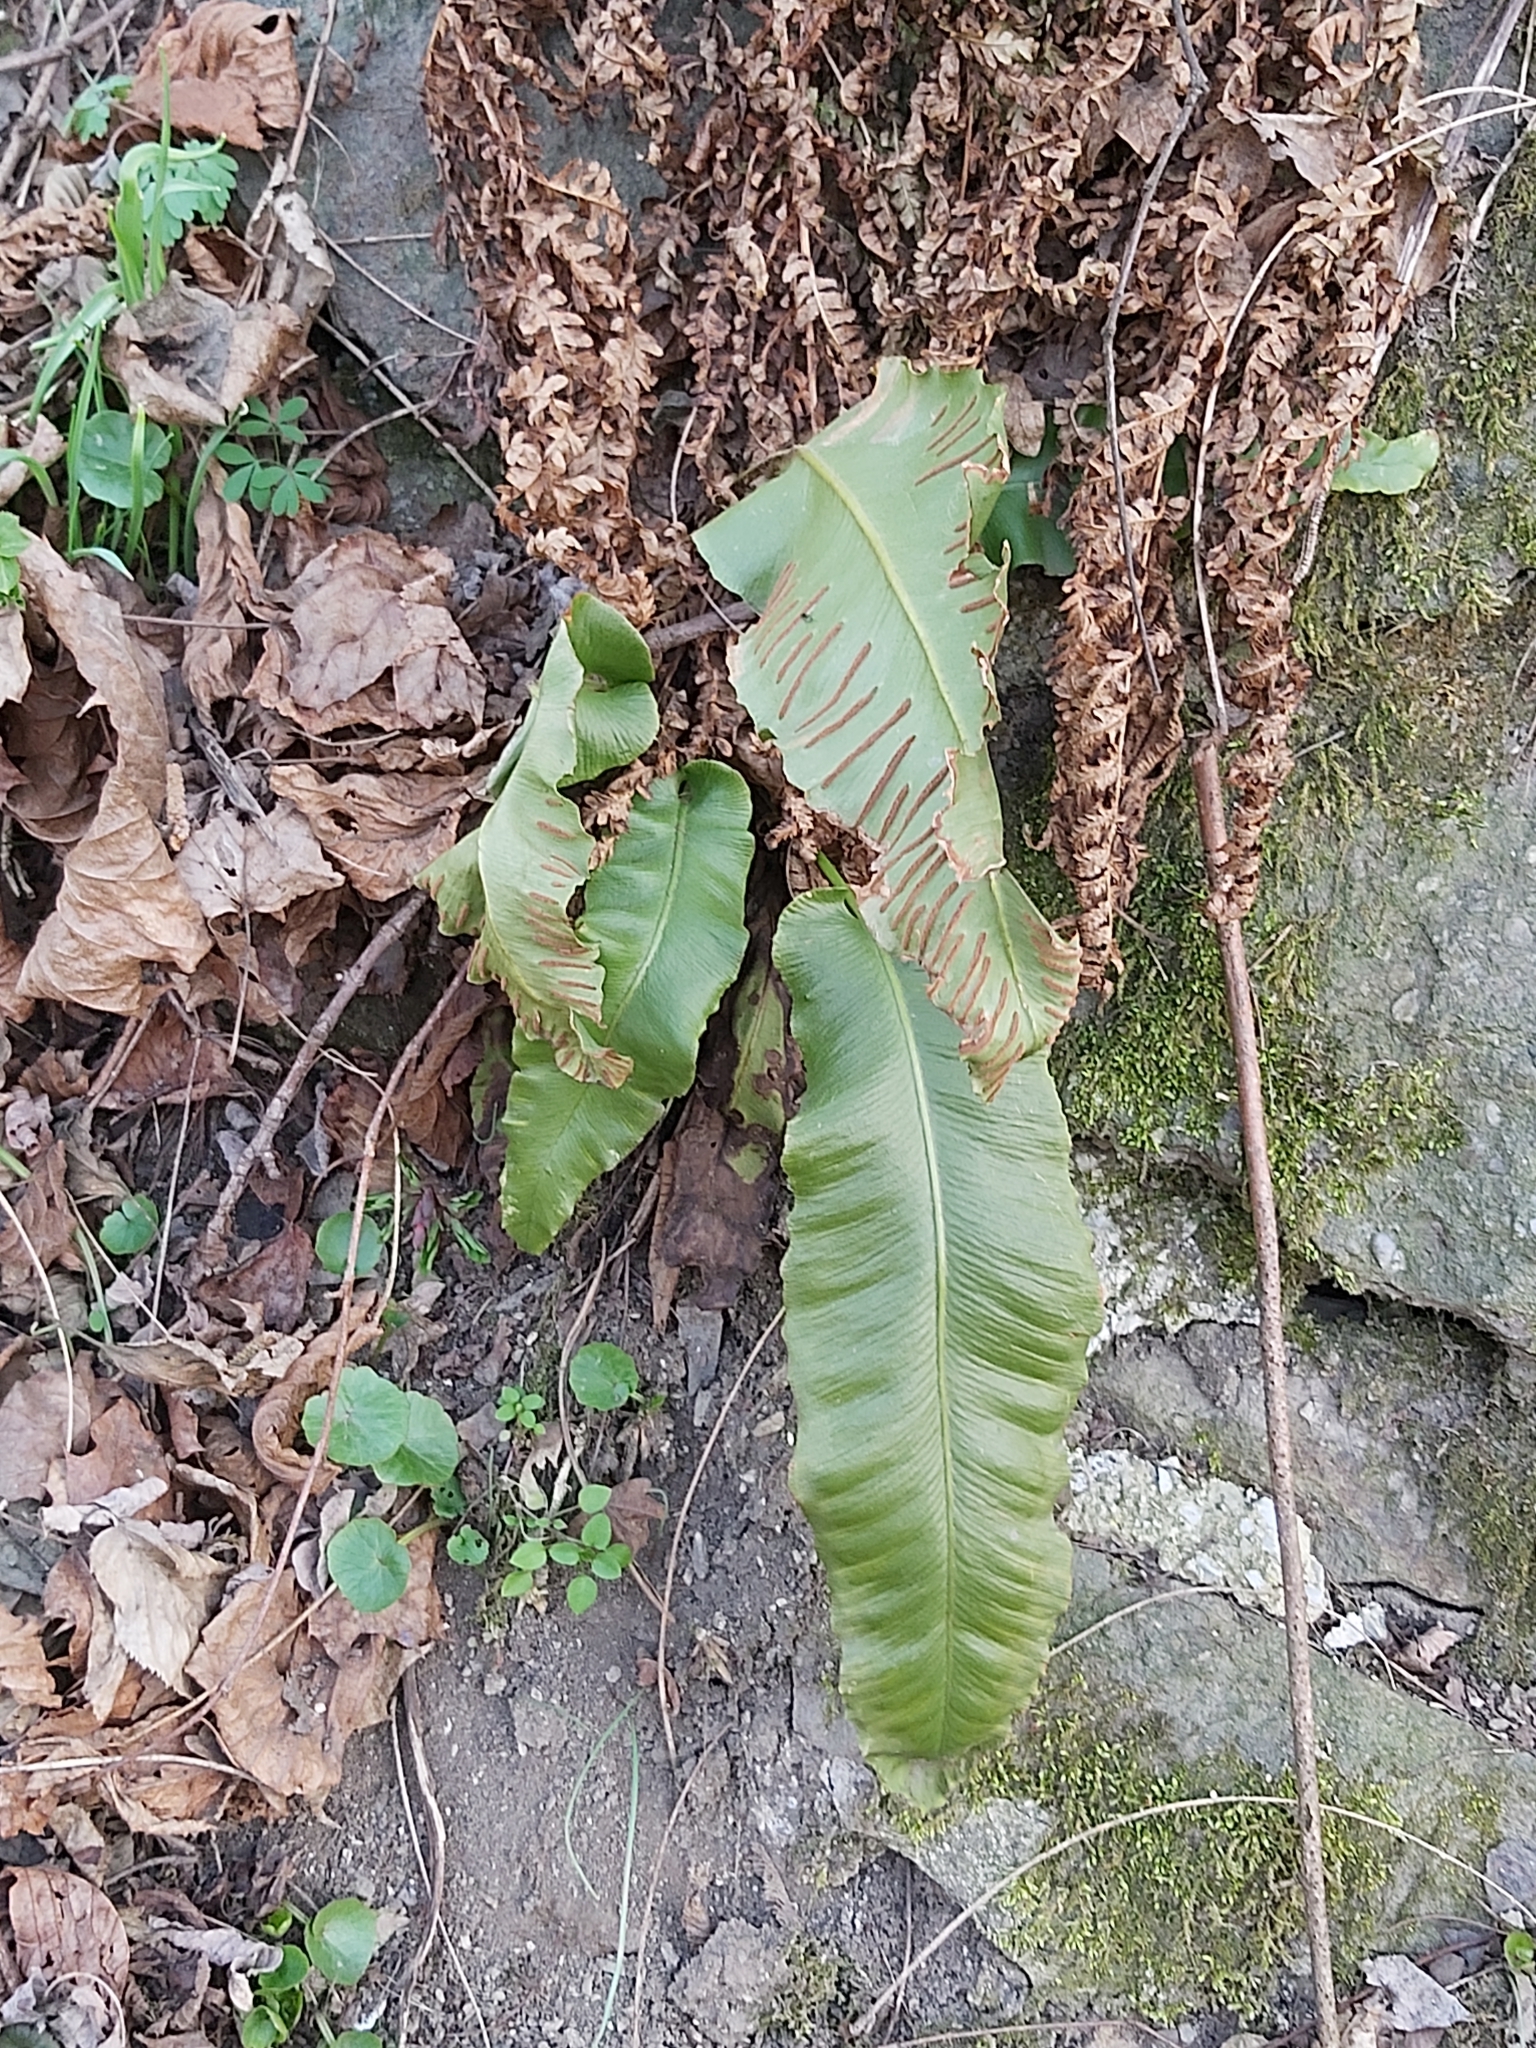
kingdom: Plantae
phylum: Tracheophyta
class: Polypodiopsida
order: Polypodiales
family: Aspleniaceae
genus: Asplenium
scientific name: Asplenium scolopendrium
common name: Hart's-tongue fern
